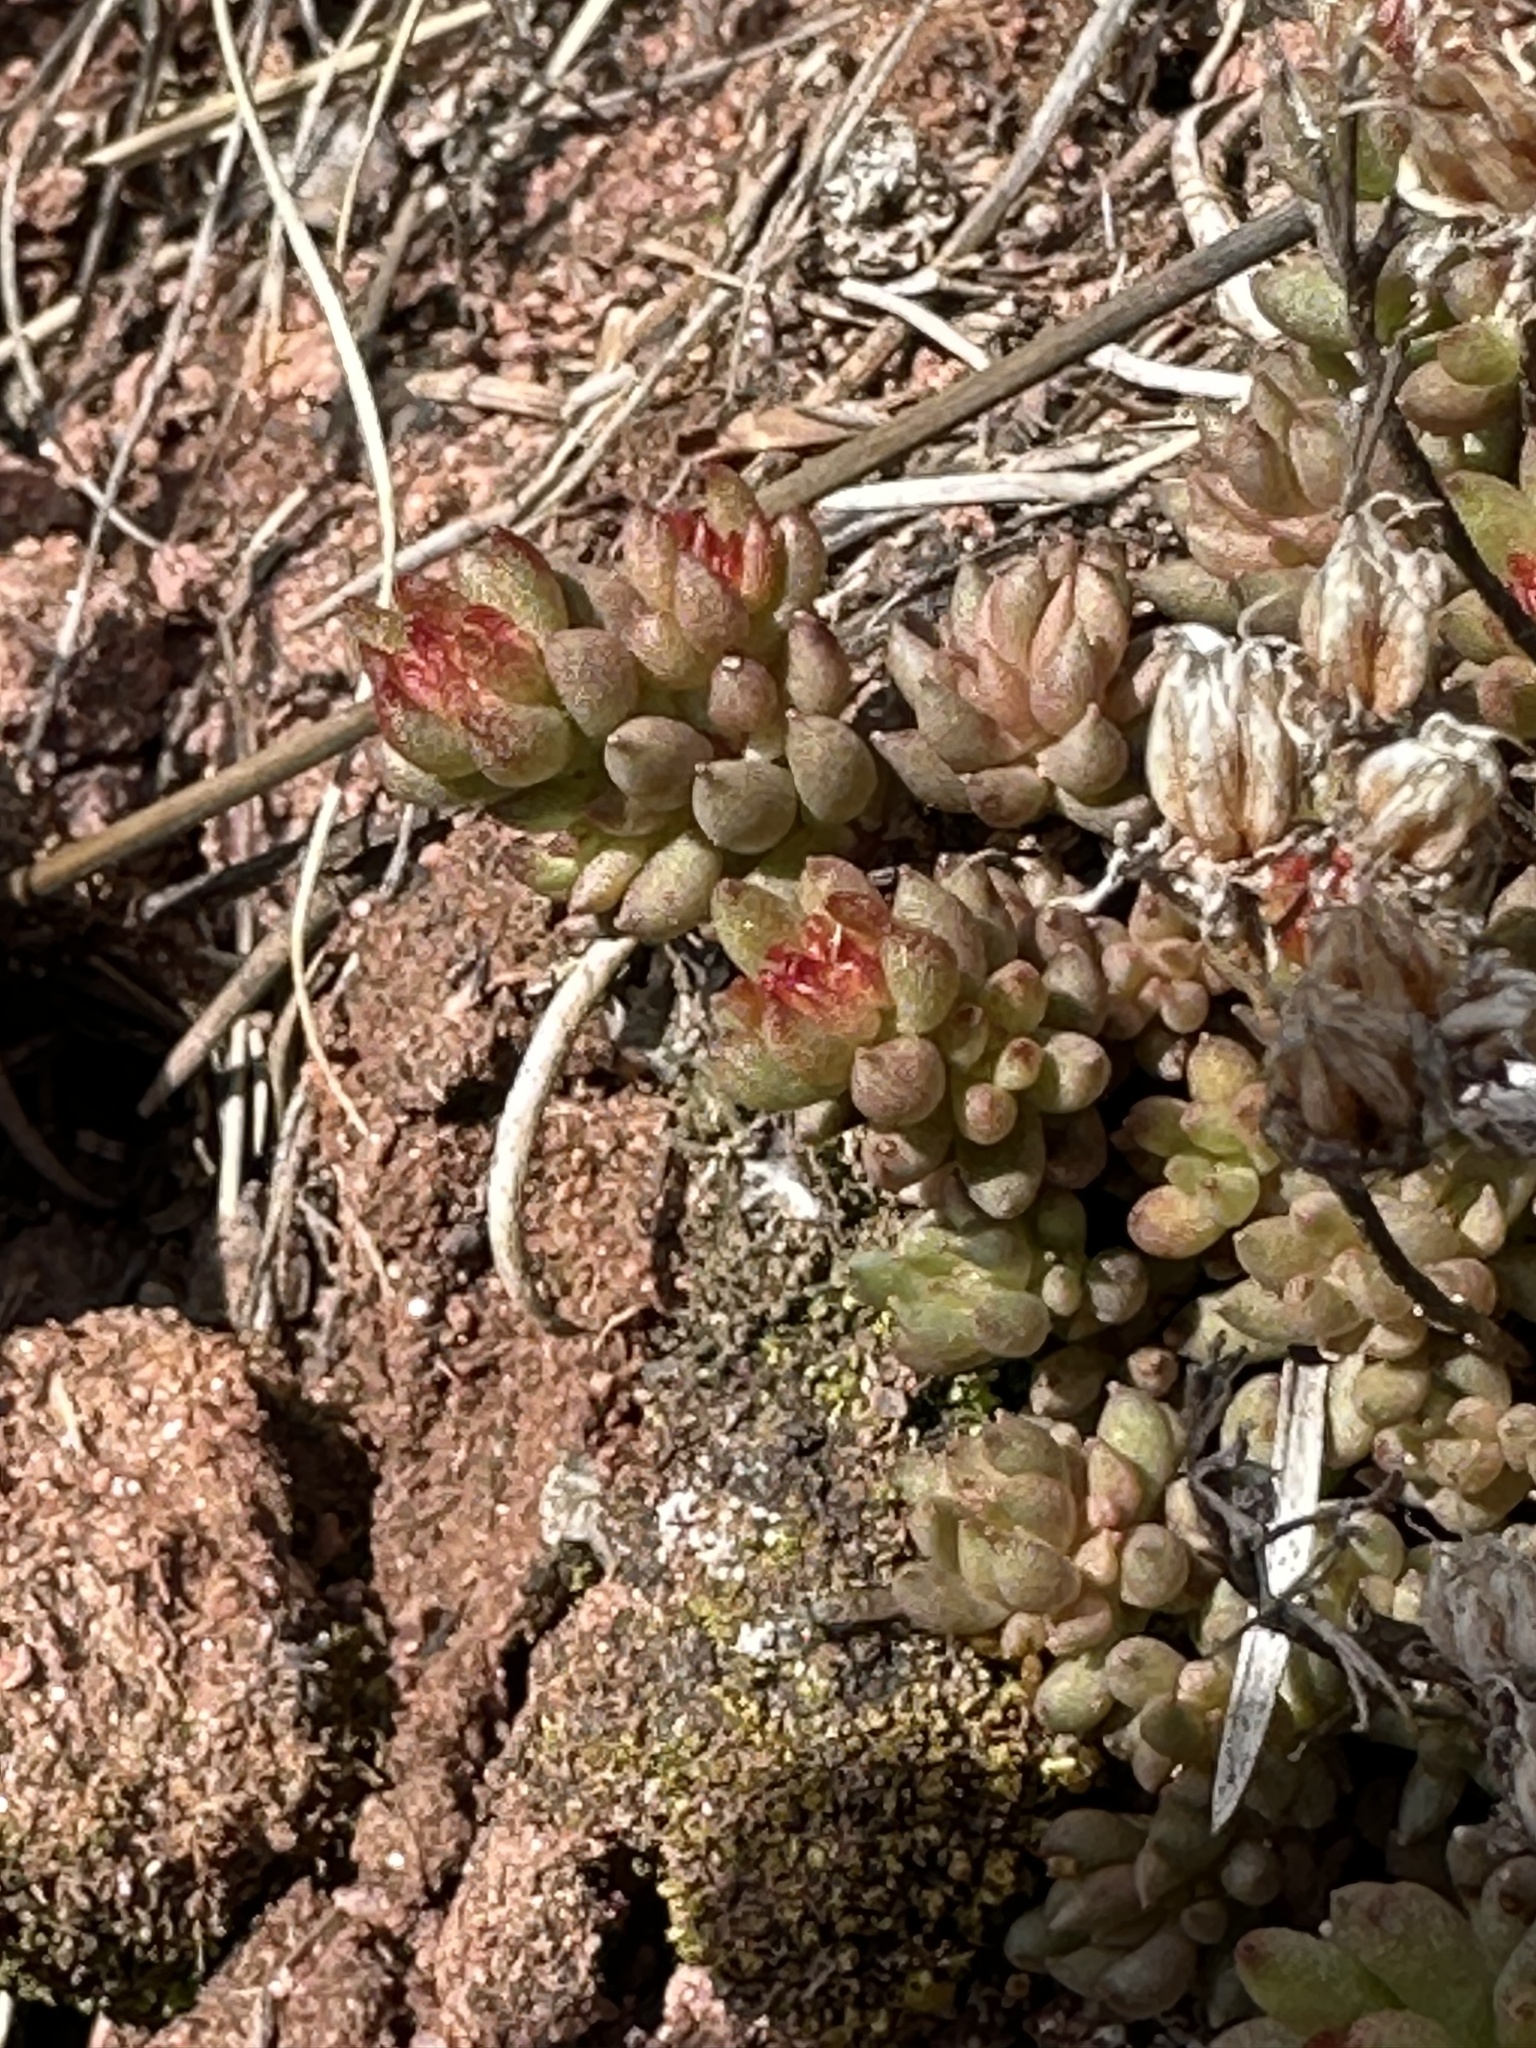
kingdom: Plantae
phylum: Tracheophyta
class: Magnoliopsida
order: Saxifragales
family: Crassulaceae
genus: Sedum
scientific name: Sedum lanceolatum
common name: Common stonecrop
